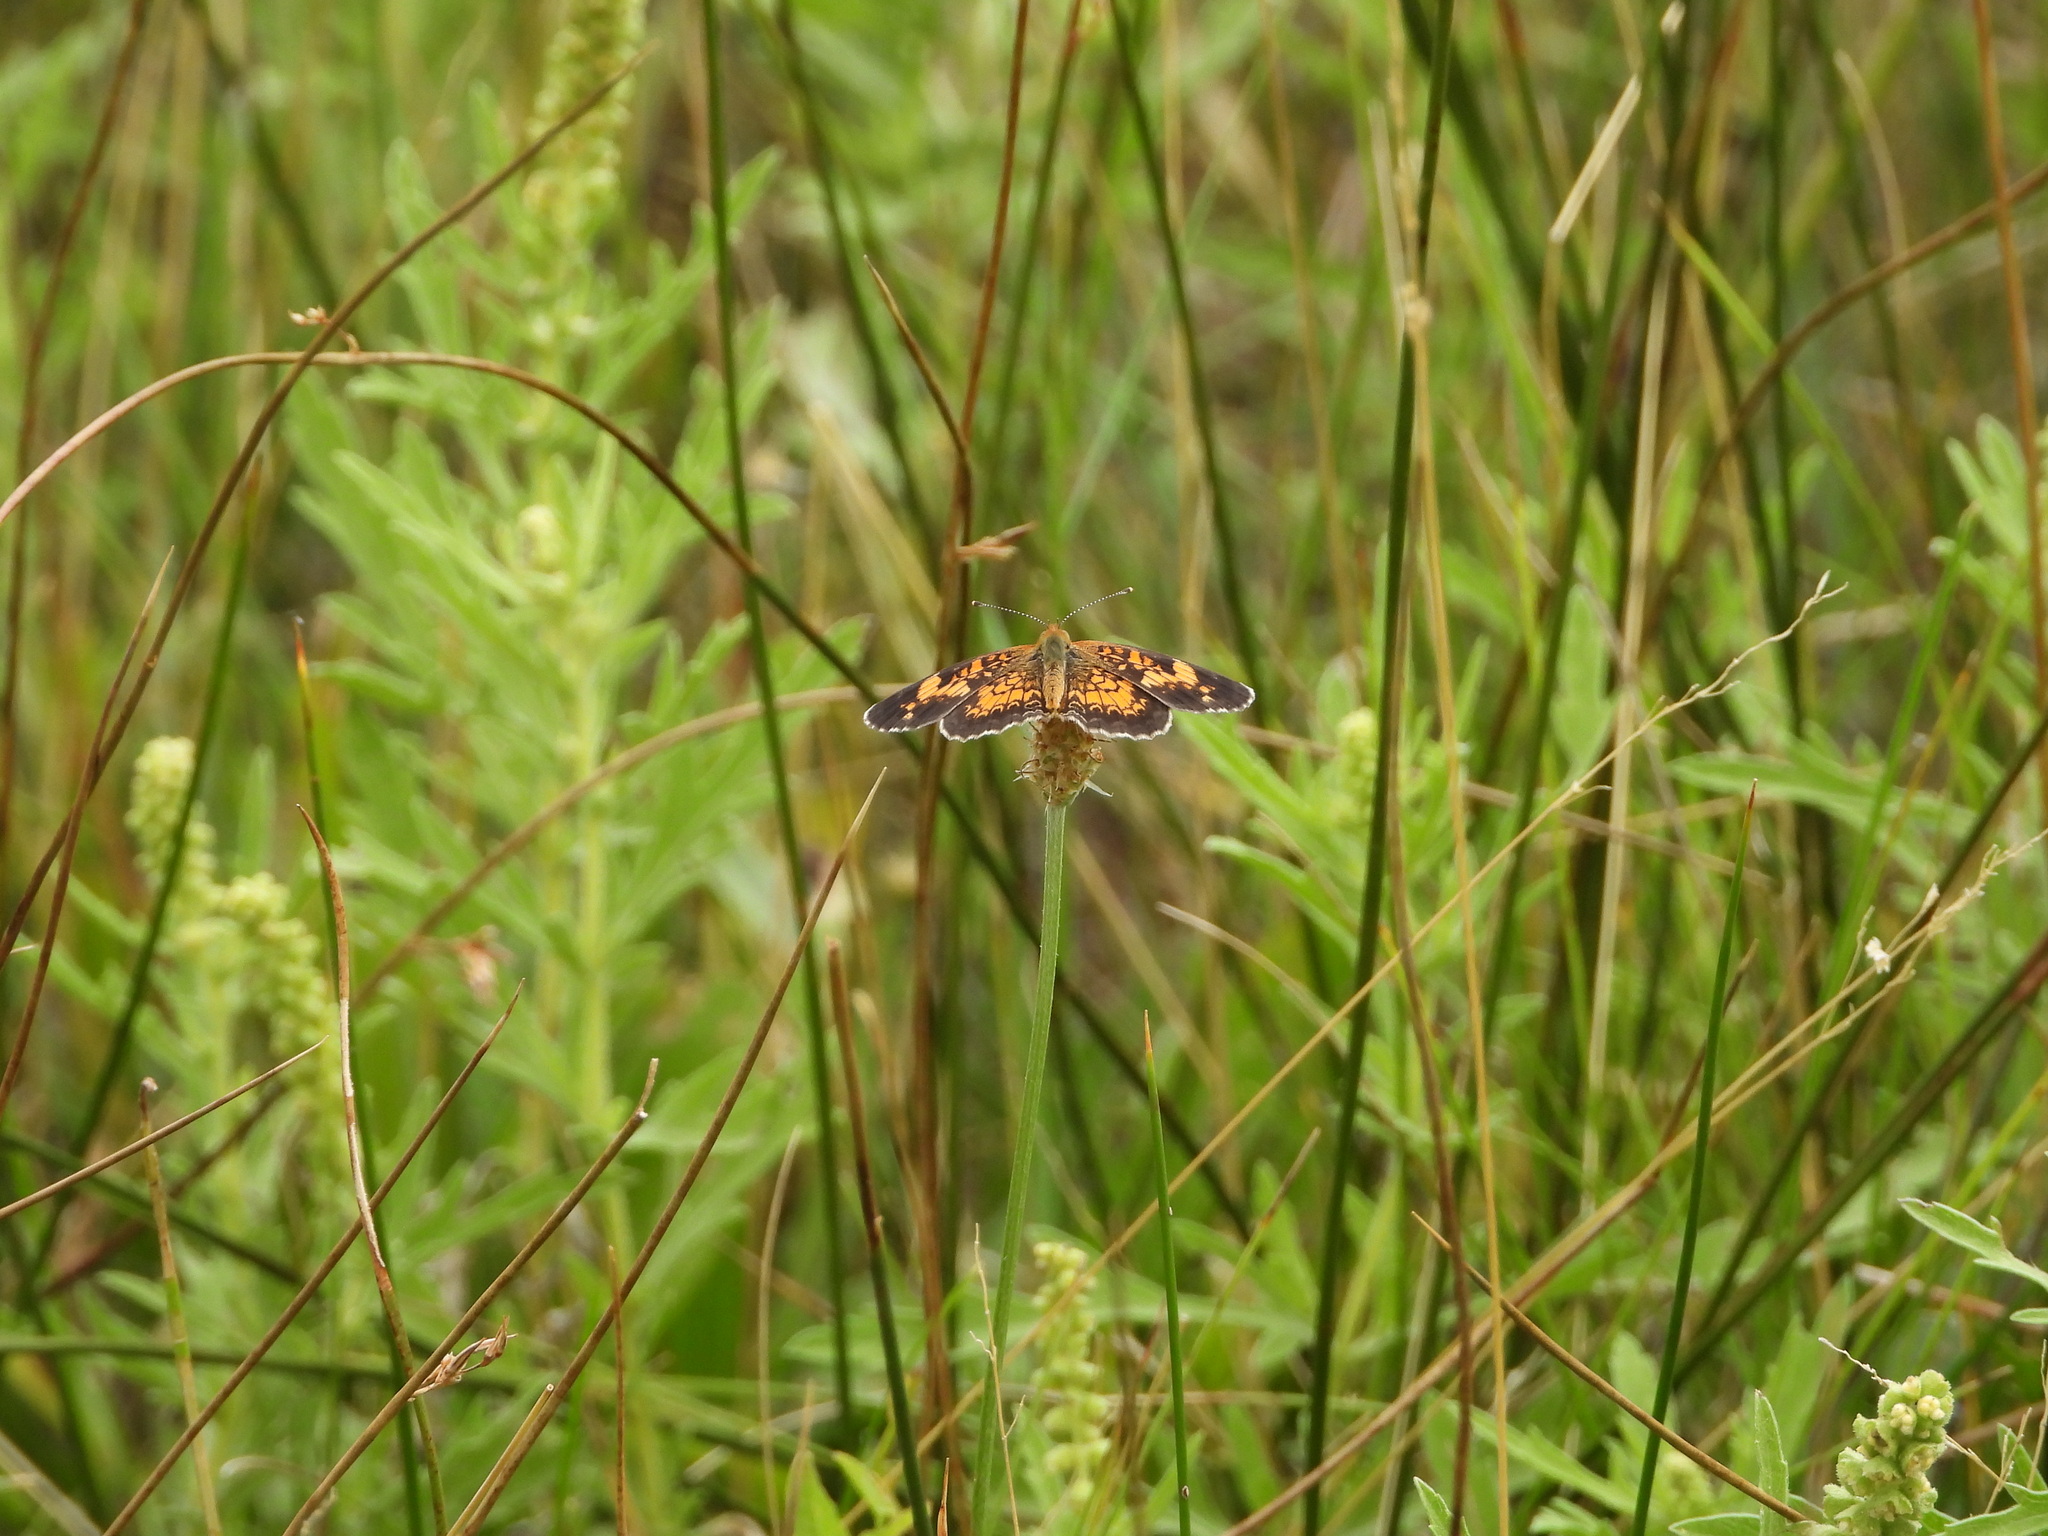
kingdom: Animalia
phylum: Arthropoda
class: Insecta
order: Lepidoptera
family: Nymphalidae
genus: Phyciodes
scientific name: Phyciodes tharos
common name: Pearl crescent
